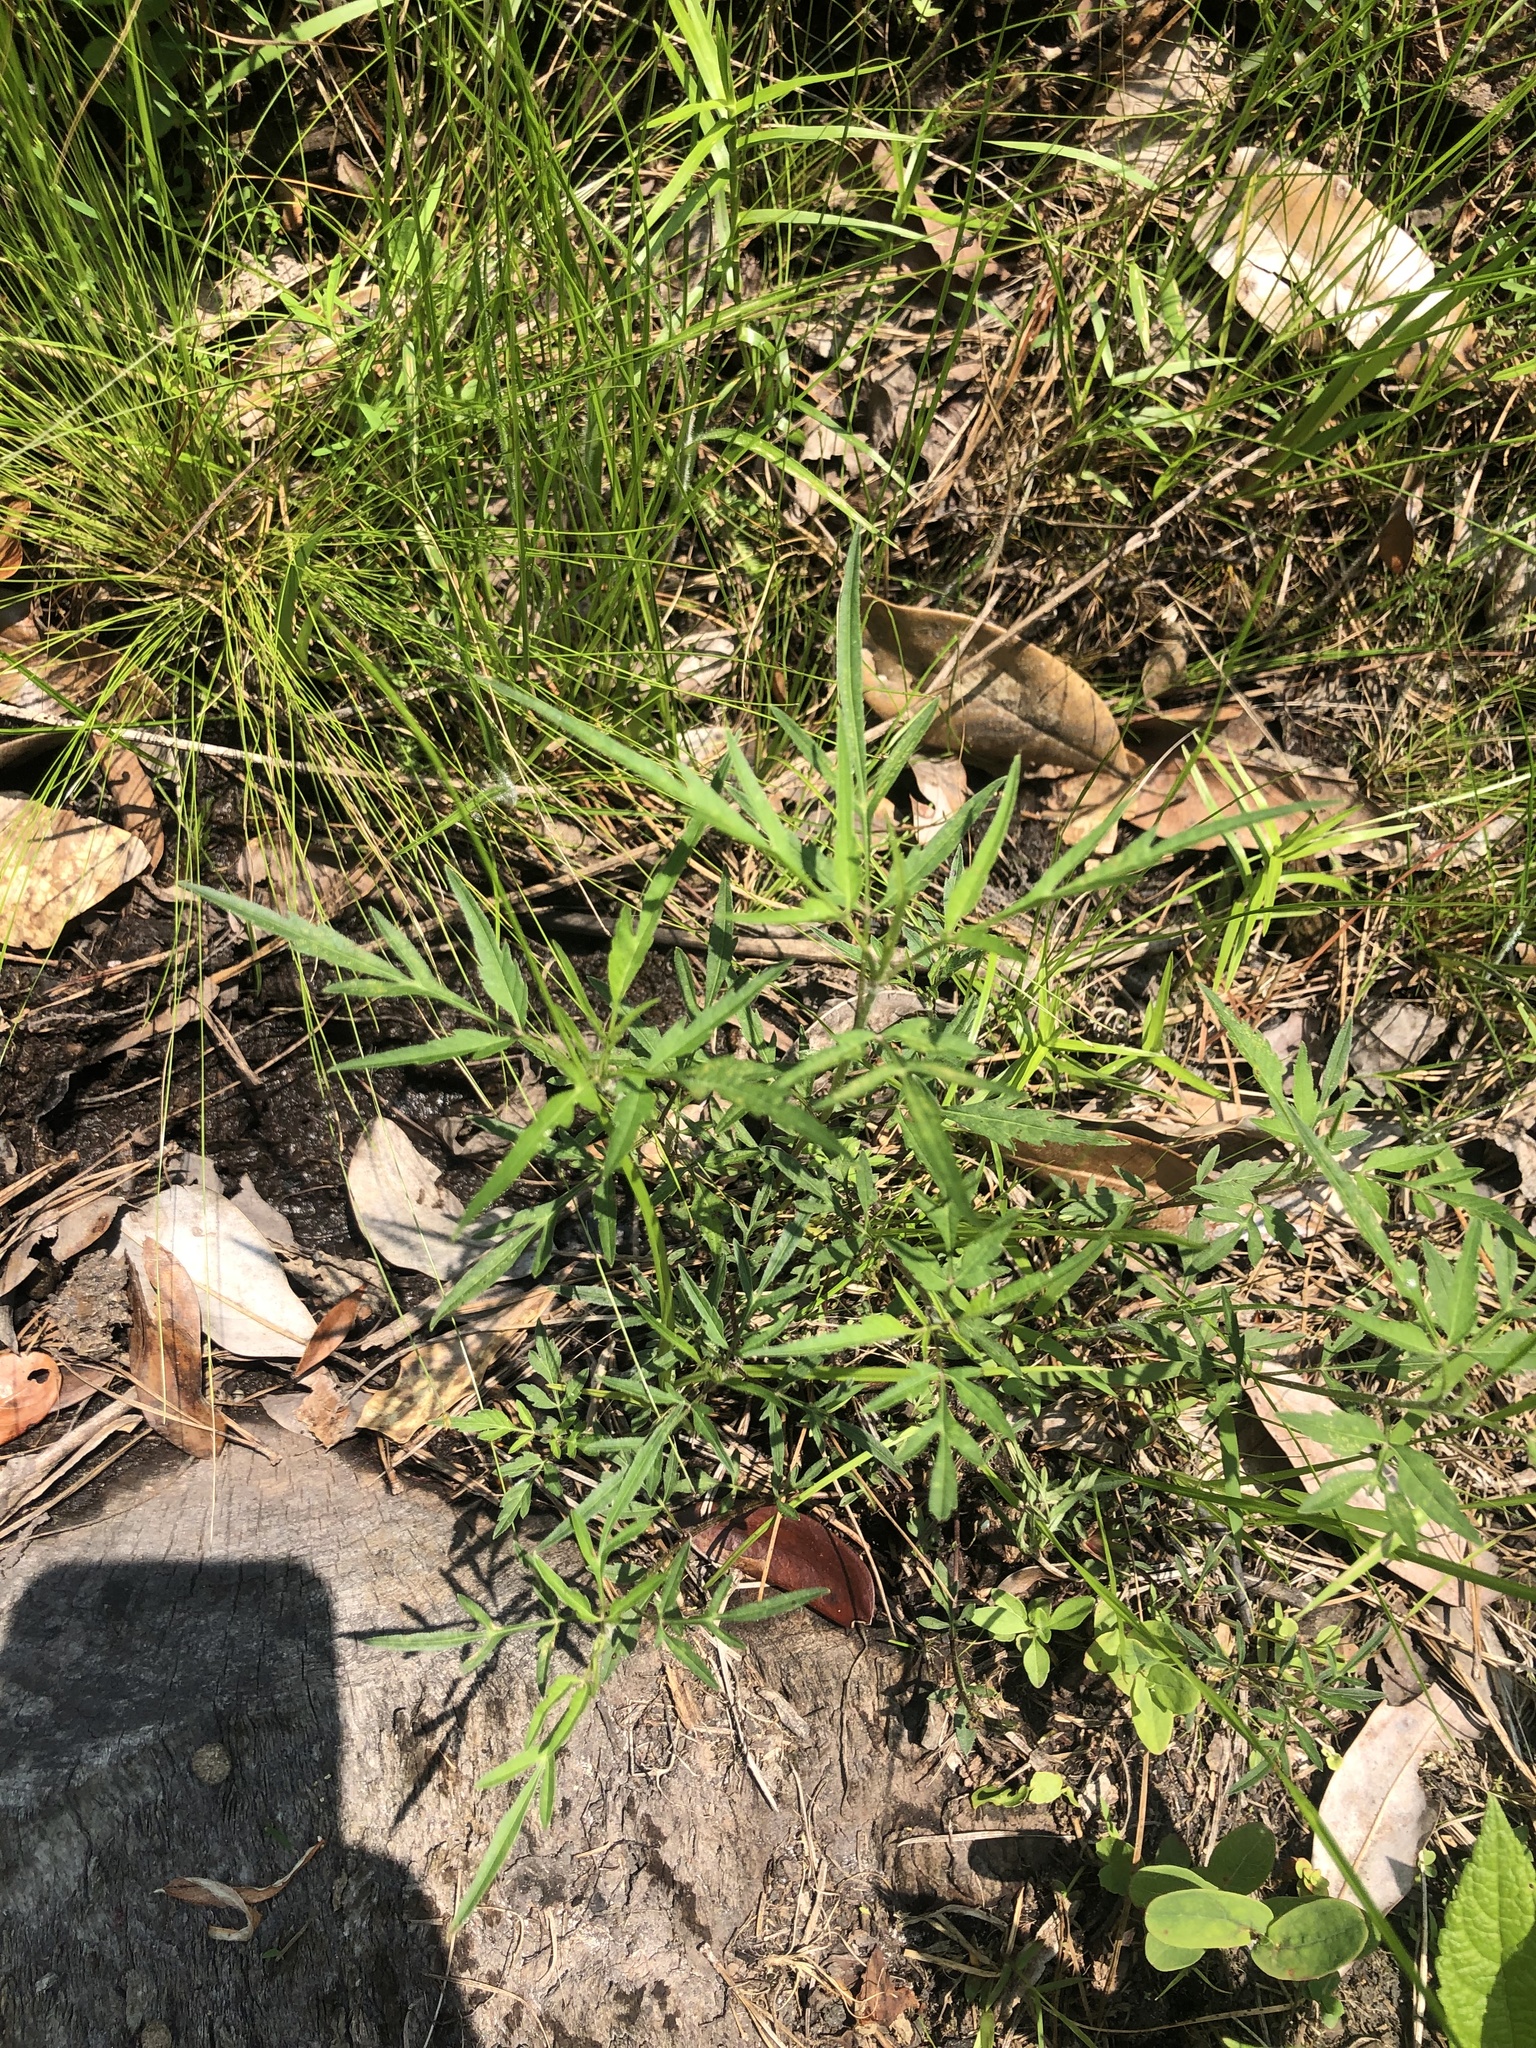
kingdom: Plantae
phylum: Tracheophyta
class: Magnoliopsida
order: Asterales
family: Asteraceae
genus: Bidens
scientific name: Bidens mitis
